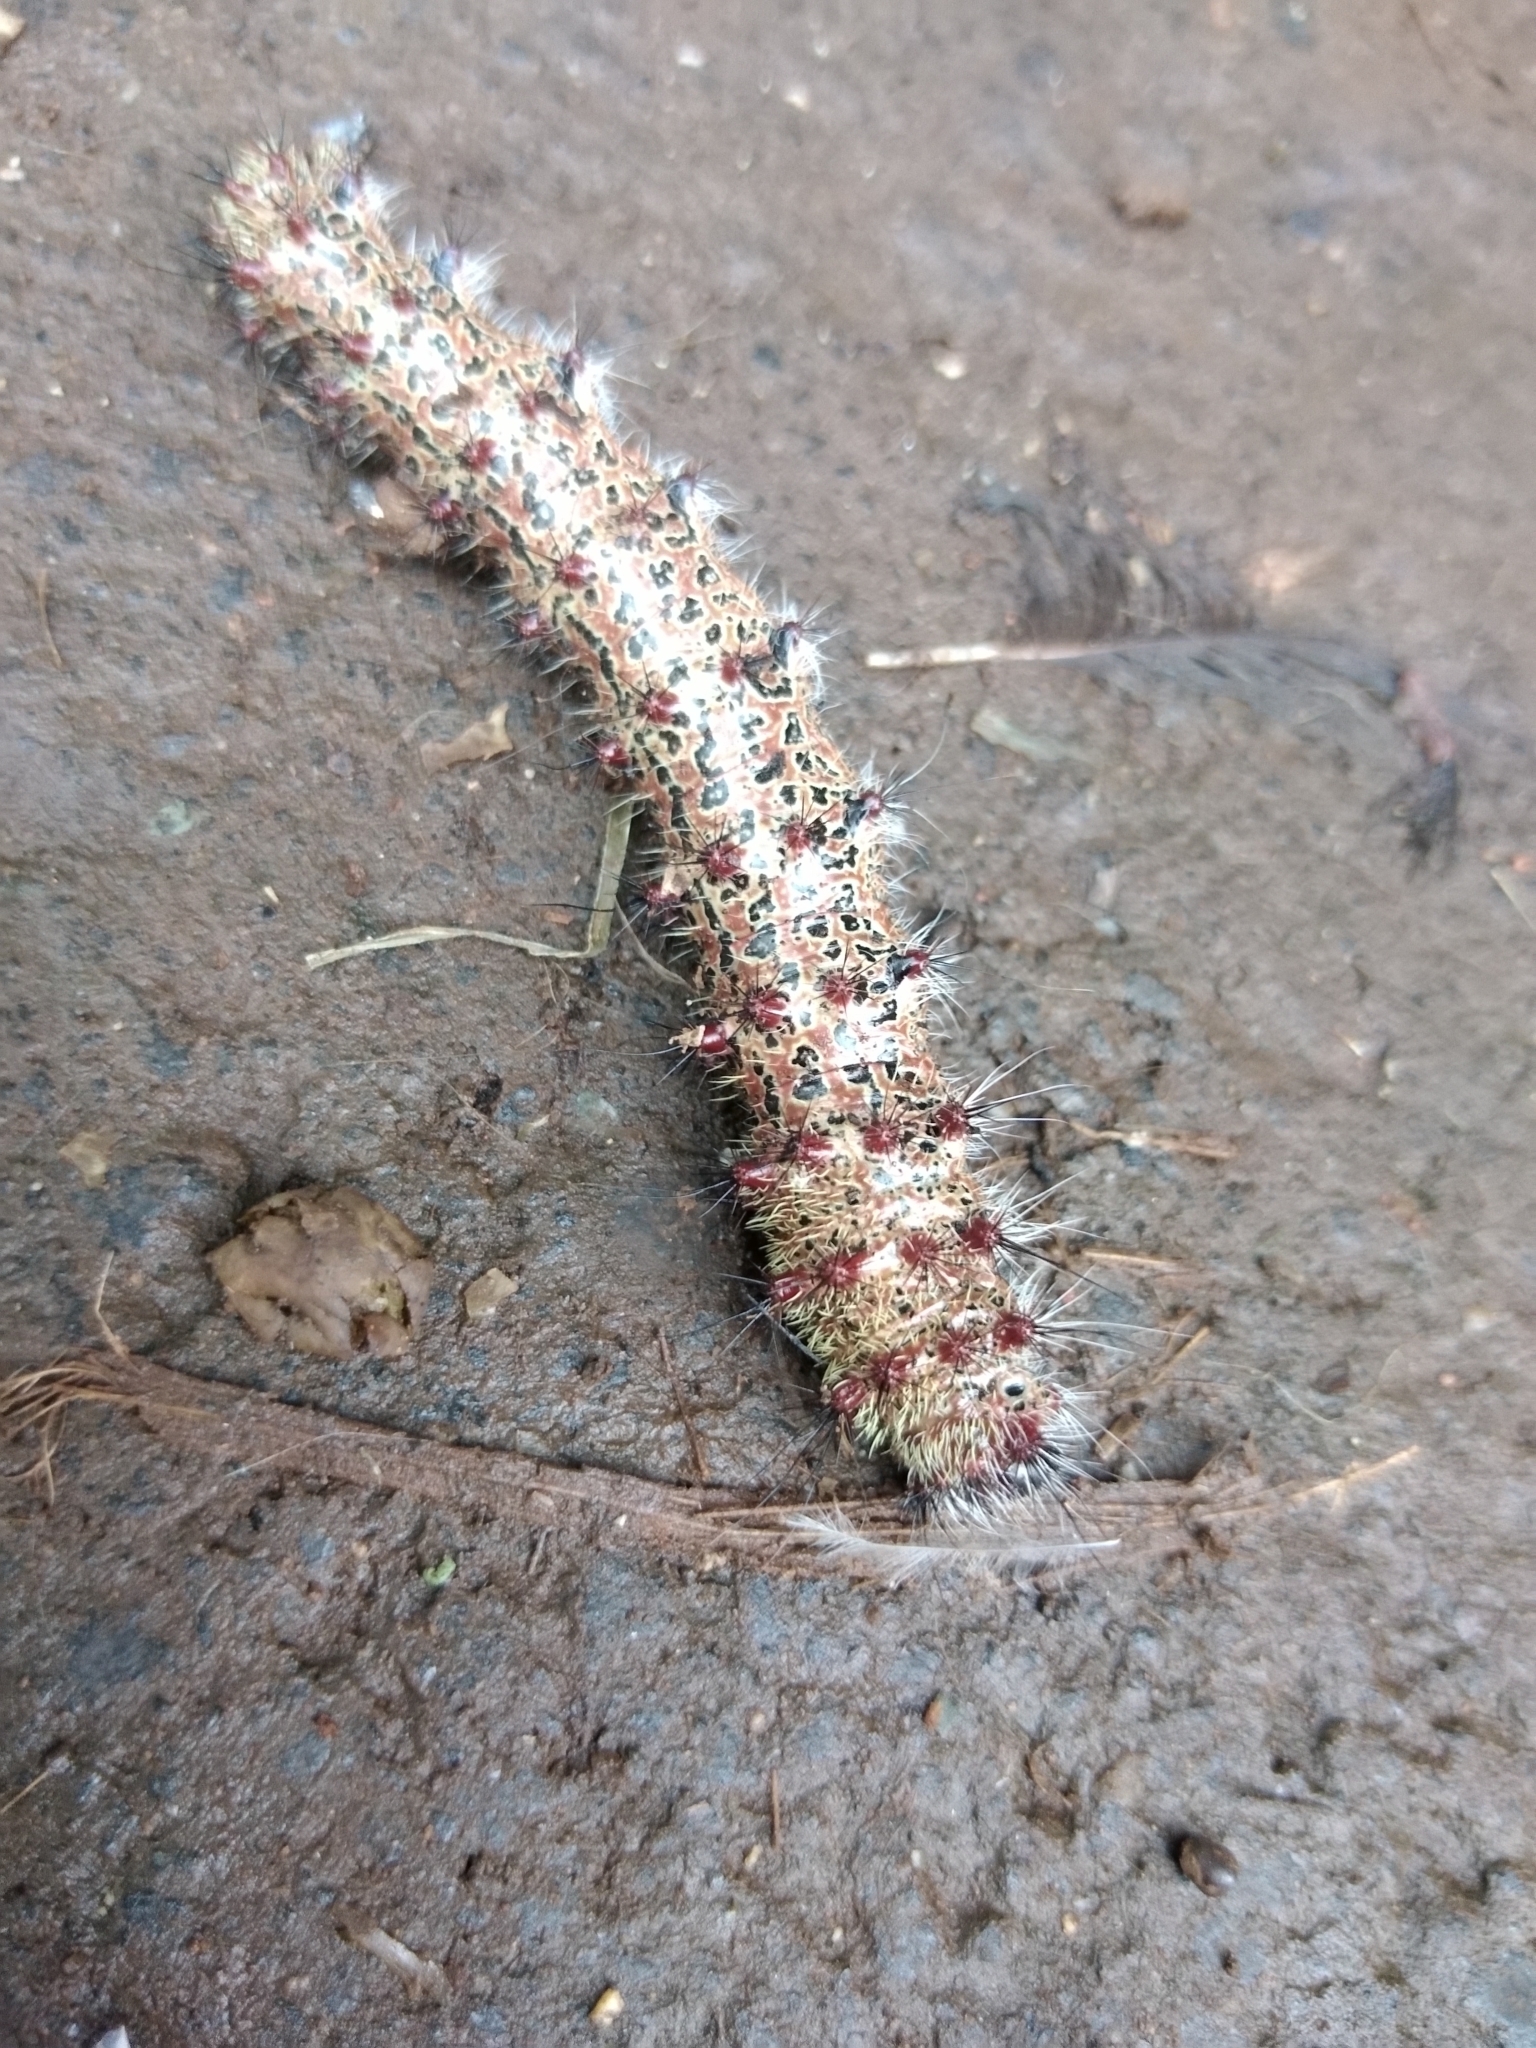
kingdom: Animalia
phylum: Arthropoda
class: Insecta
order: Lepidoptera
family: Saturniidae
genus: Holocerina
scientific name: Holocerina smilax
